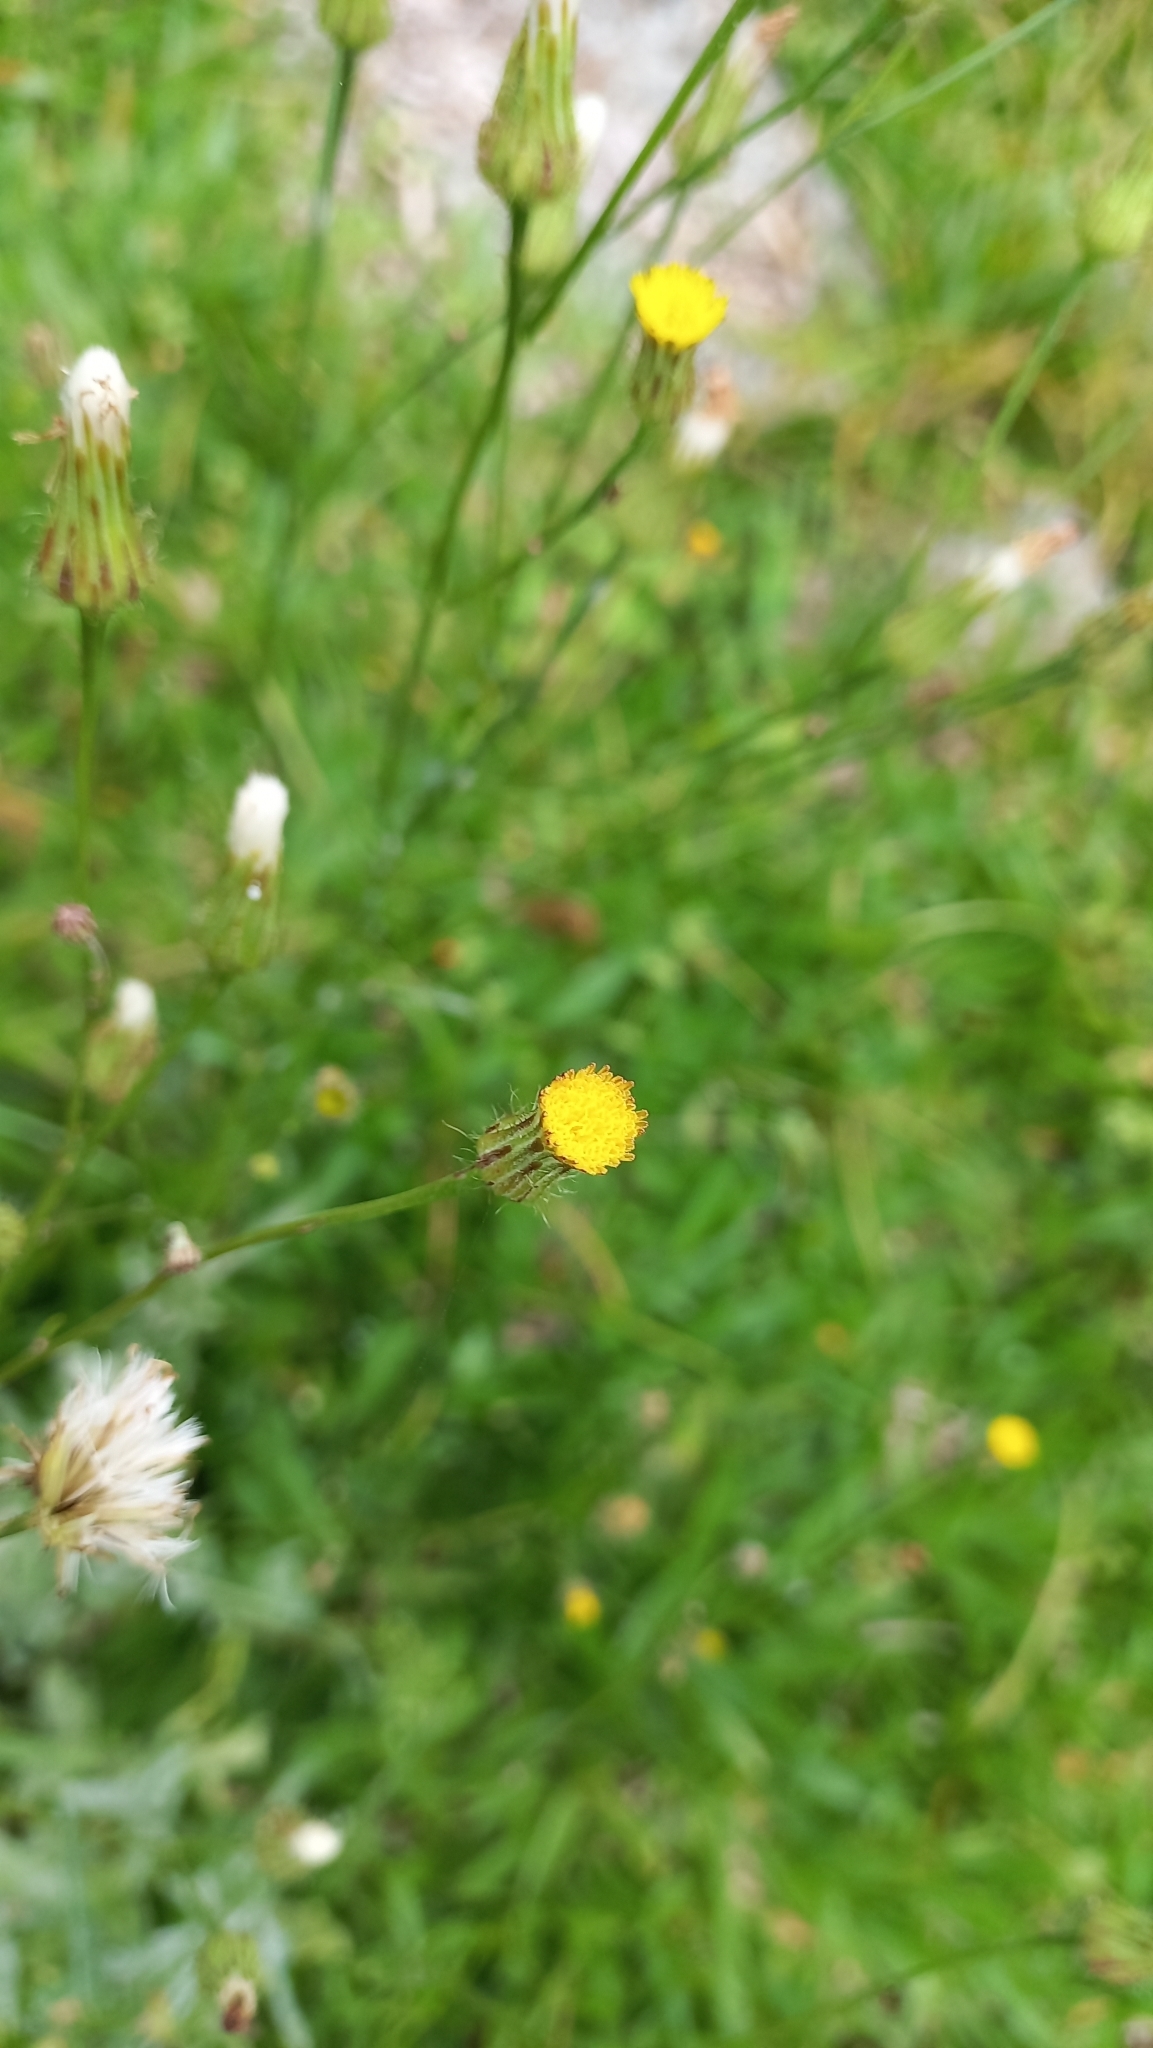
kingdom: Plantae
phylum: Tracheophyta
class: Magnoliopsida
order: Asterales
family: Asteraceae
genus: Hypochaeris
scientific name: Hypochaeris chillensis
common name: Brazilian cat's ear
